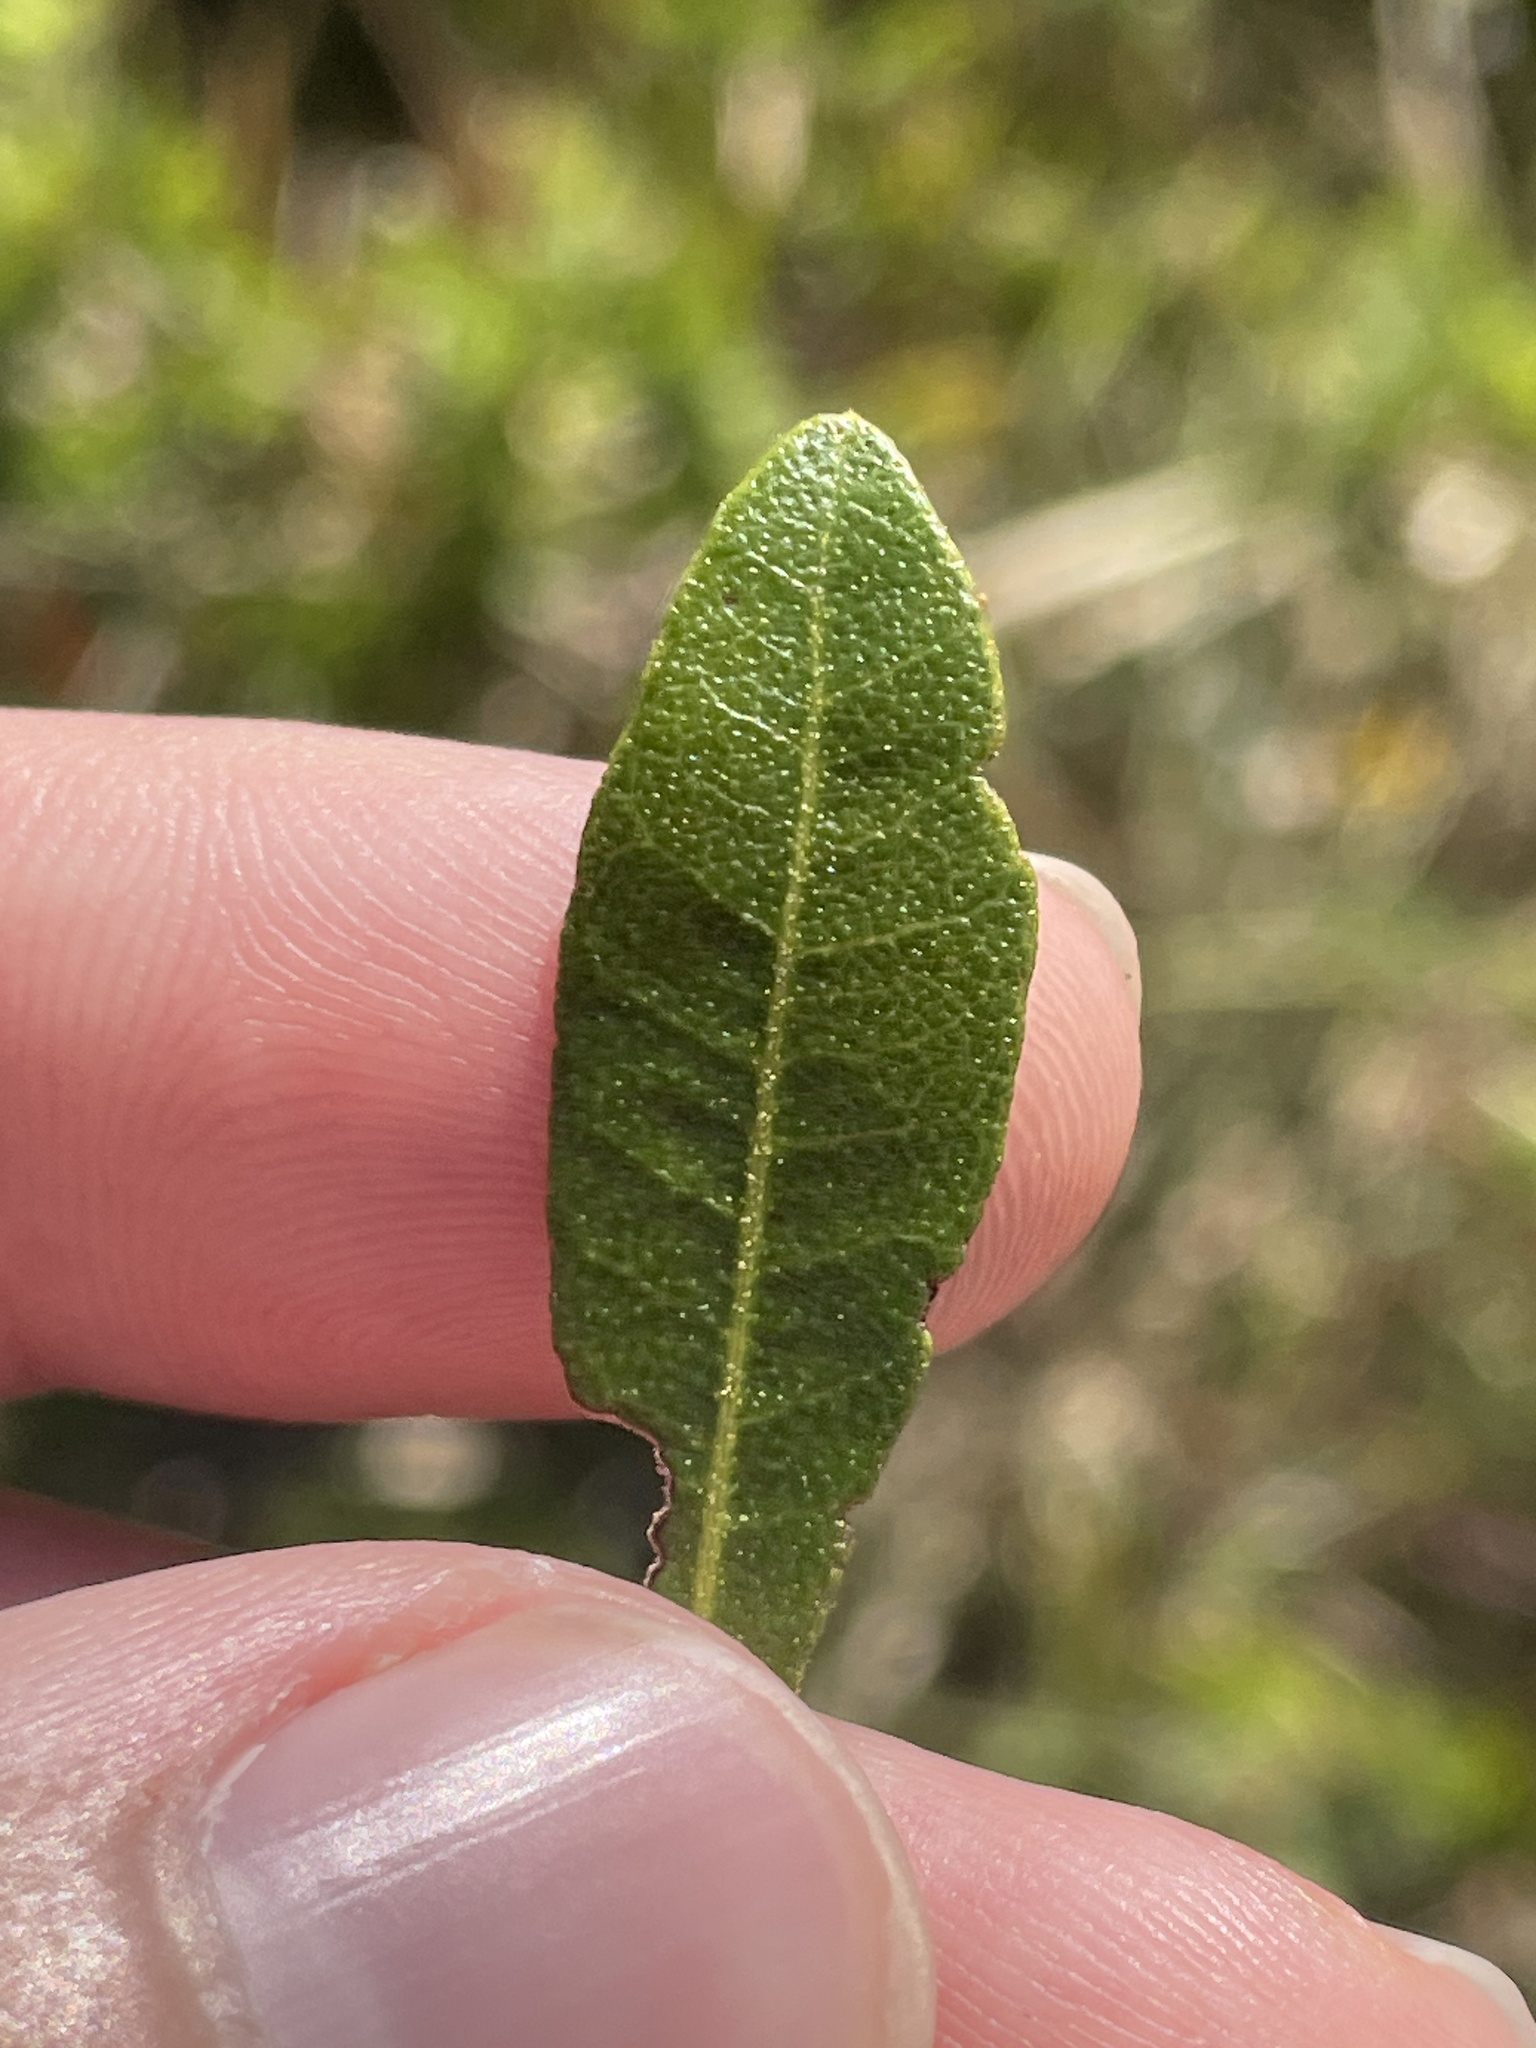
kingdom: Plantae
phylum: Tracheophyta
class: Magnoliopsida
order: Fagales
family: Myricaceae
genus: Morella
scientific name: Morella cerifera
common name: Wax myrtle
